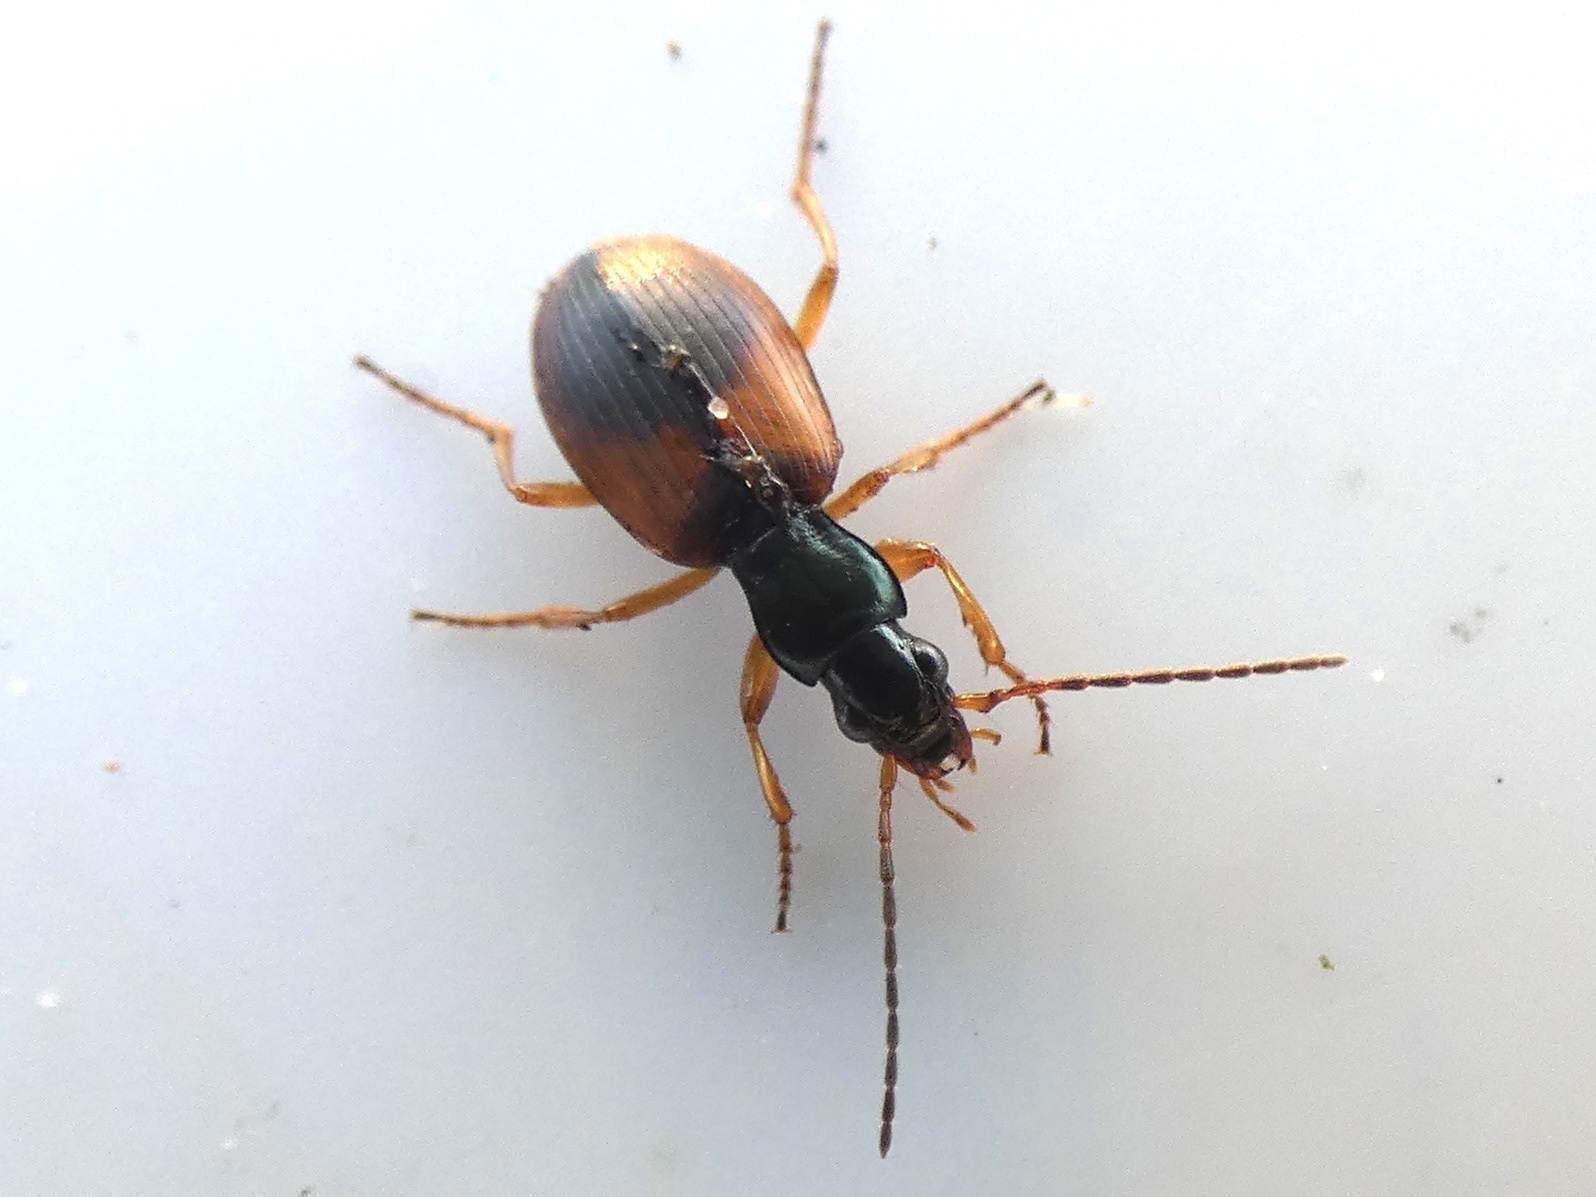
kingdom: Animalia
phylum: Arthropoda
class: Insecta
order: Coleoptera
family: Carabidae
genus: Anchomenus
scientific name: Anchomenus dorsalis
